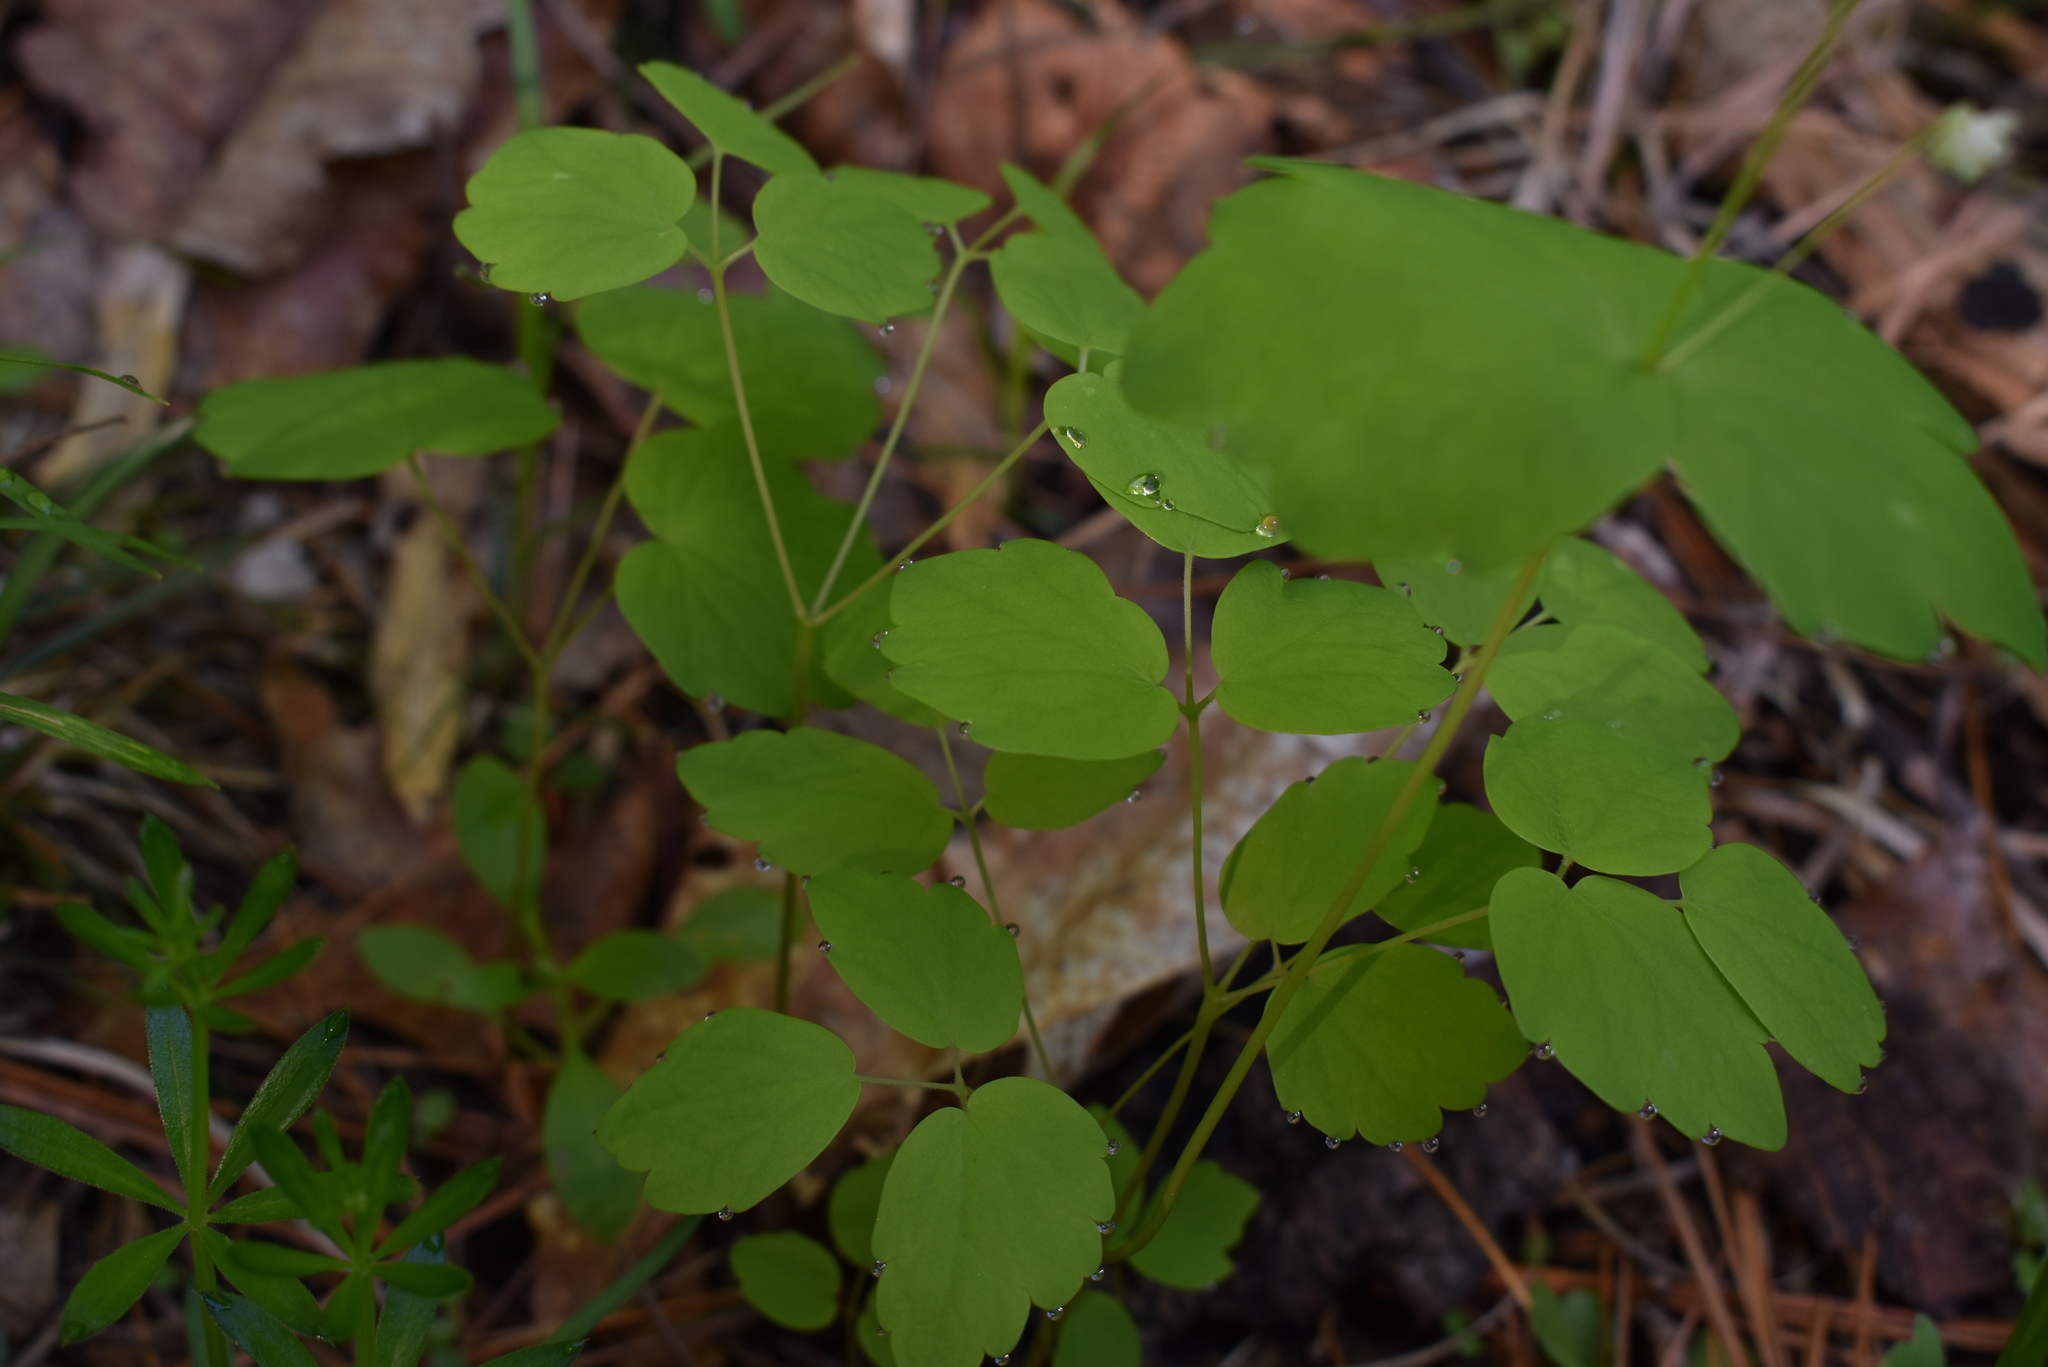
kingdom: Plantae
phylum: Tracheophyta
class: Magnoliopsida
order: Ranunculales
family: Ranunculaceae
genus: Thalictrum
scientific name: Thalictrum filamentosum
